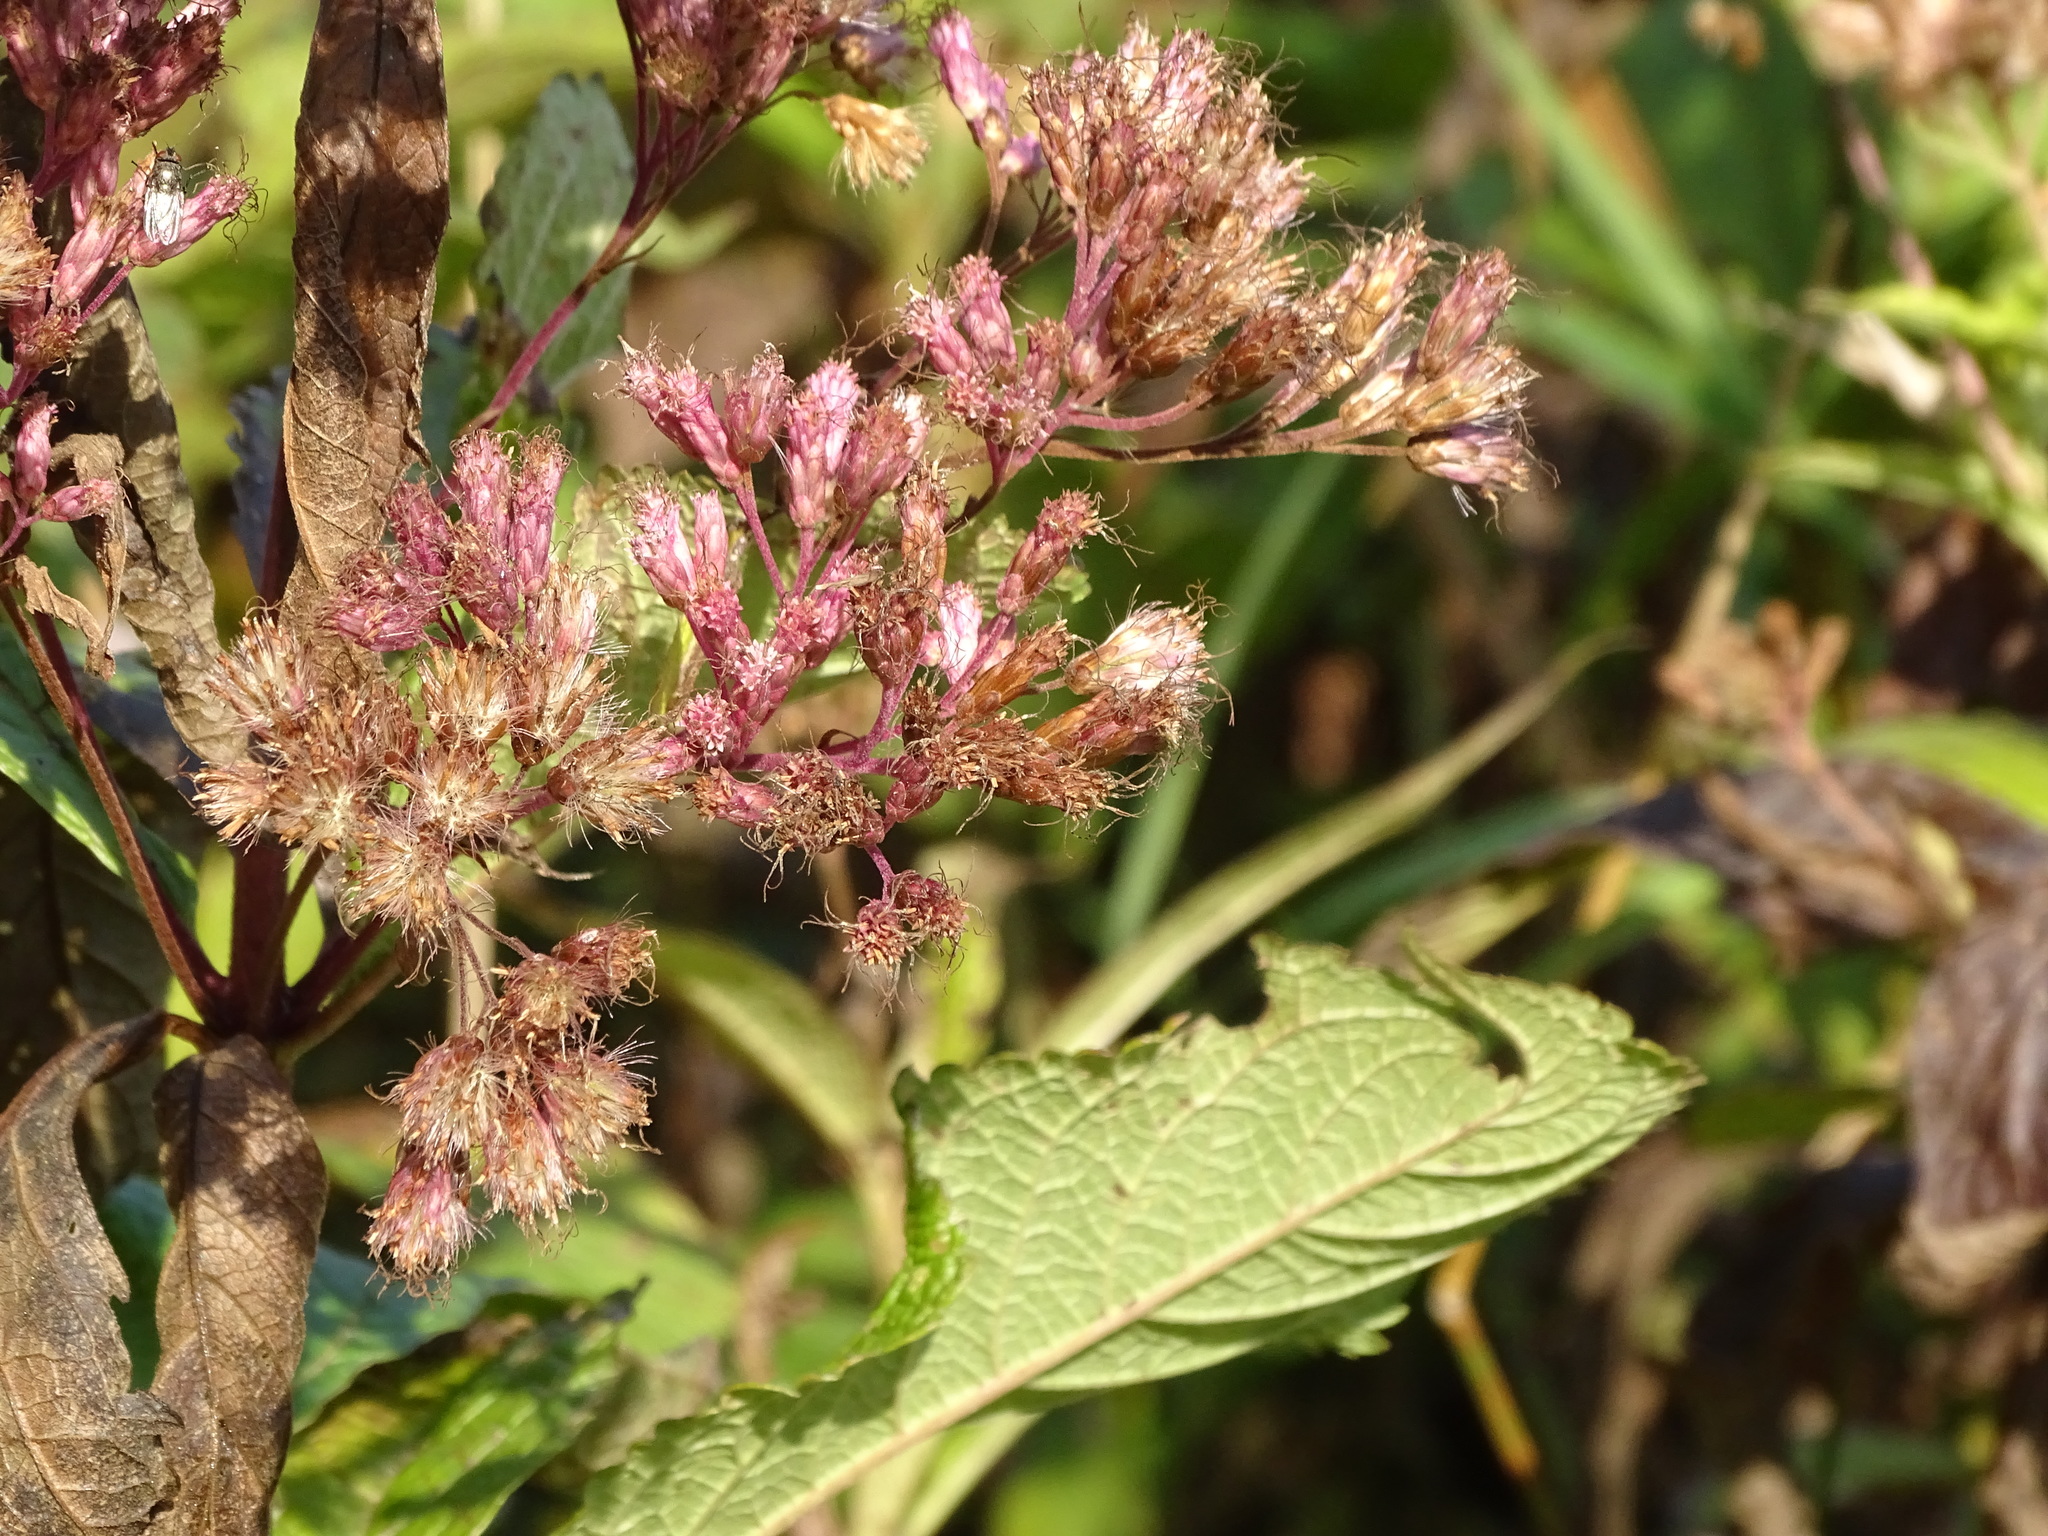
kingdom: Plantae
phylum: Tracheophyta
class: Magnoliopsida
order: Asterales
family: Asteraceae
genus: Eutrochium
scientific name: Eutrochium maculatum
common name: Spotted joe pye weed
